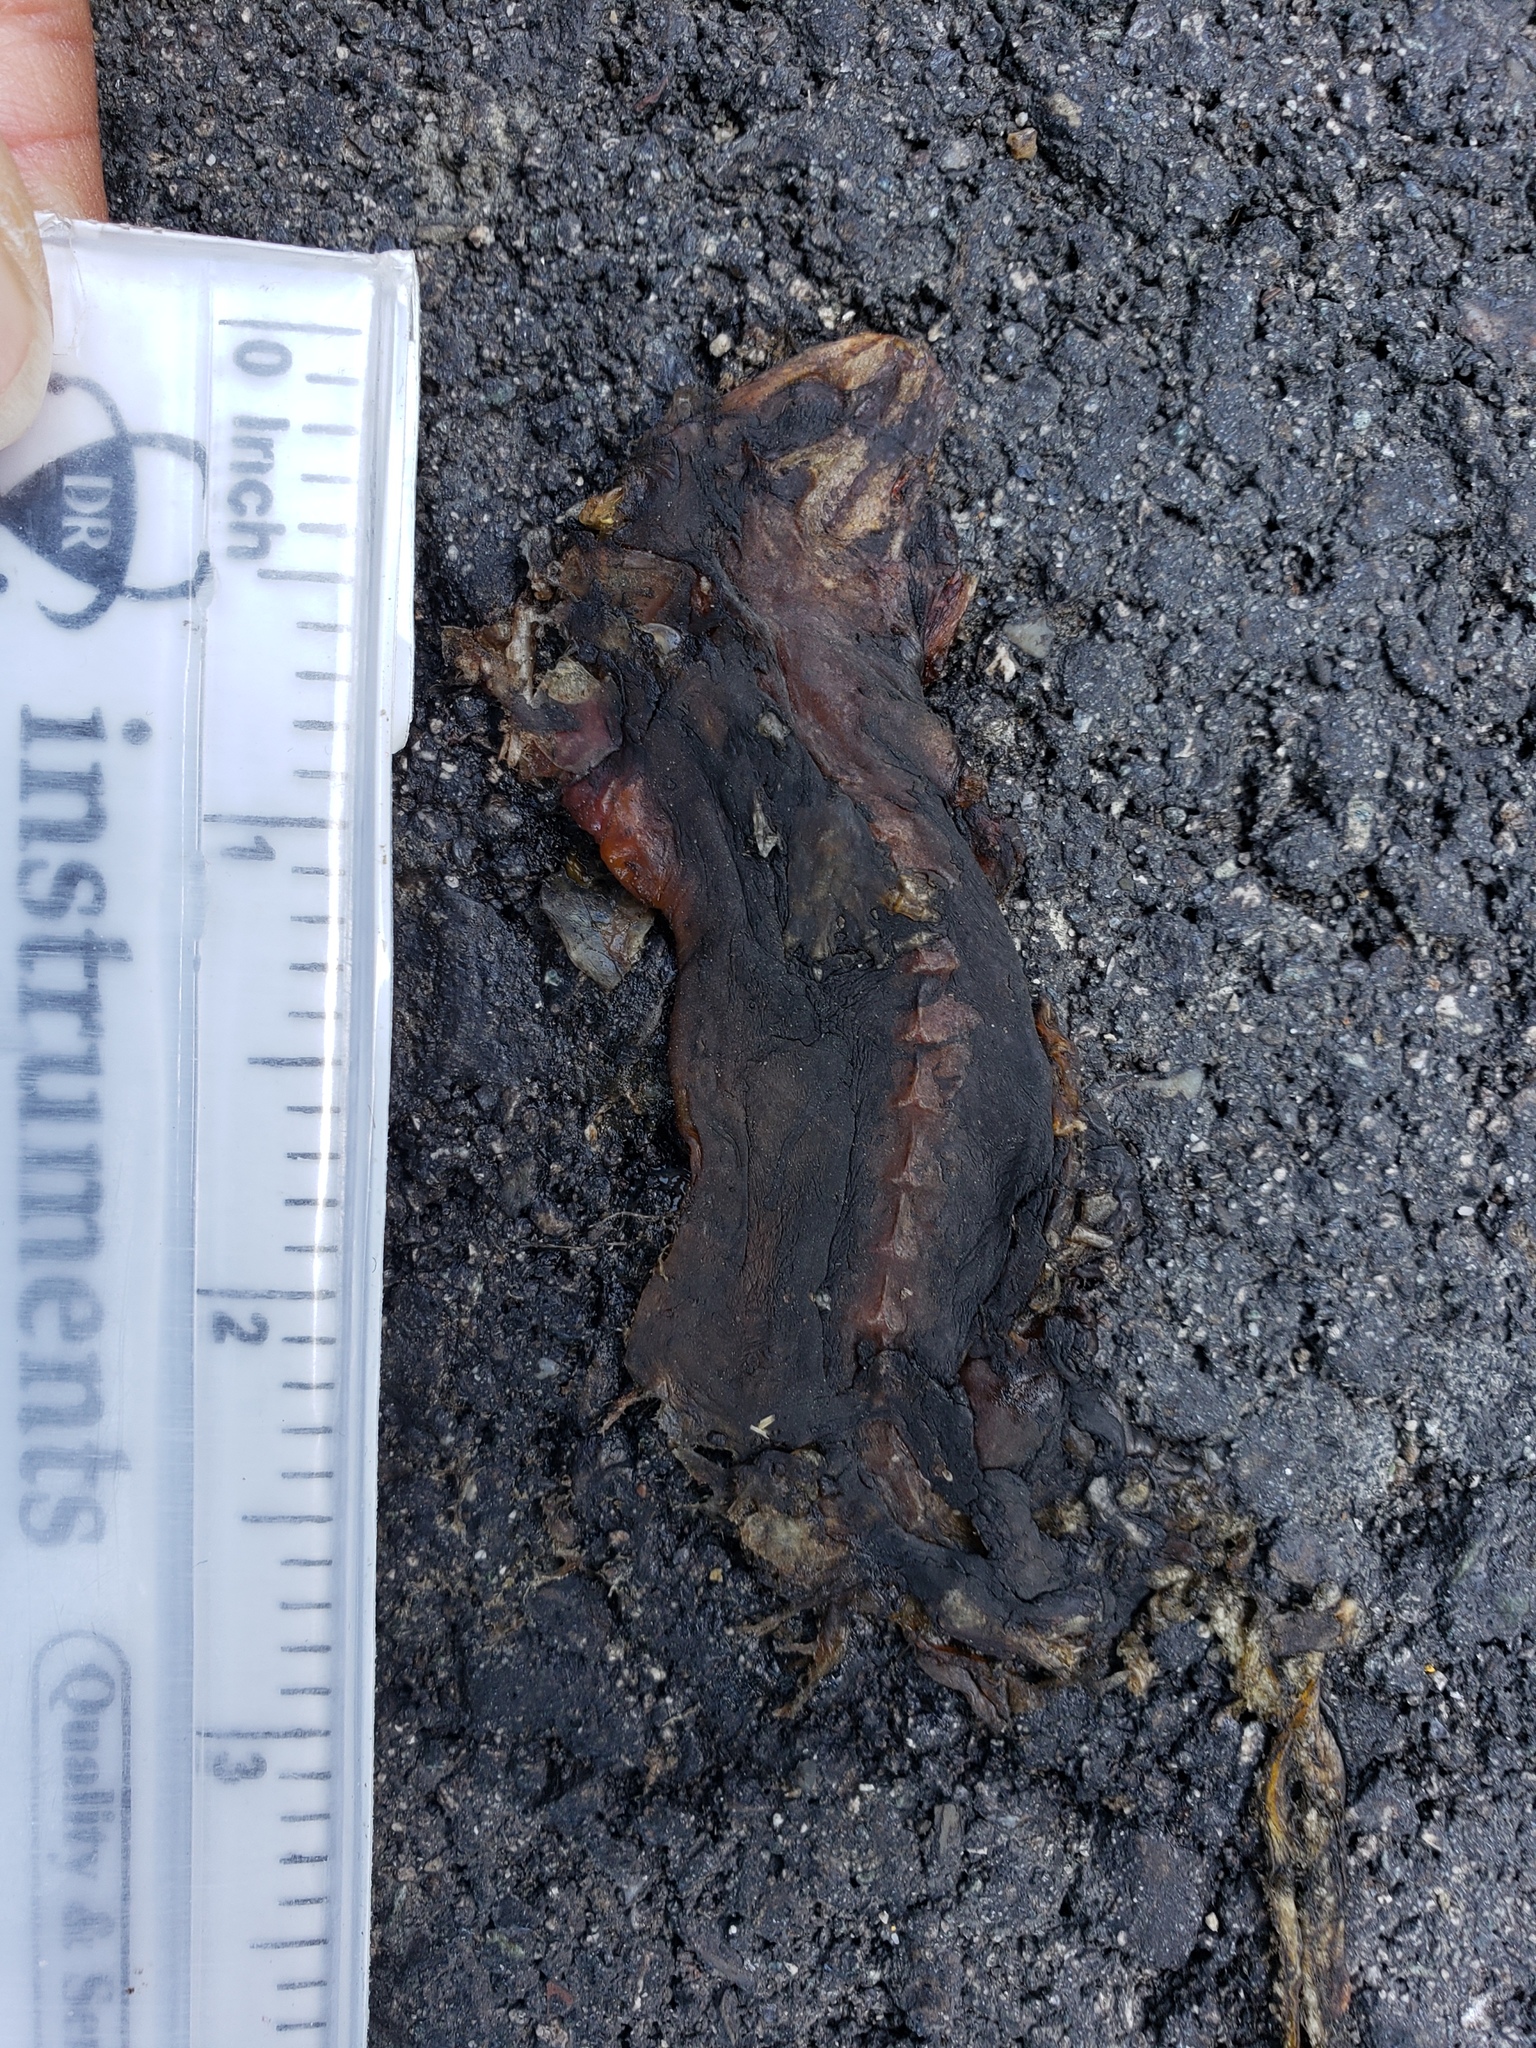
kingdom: Animalia
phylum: Chordata
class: Amphibia
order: Caudata
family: Salamandridae
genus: Taricha
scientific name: Taricha
